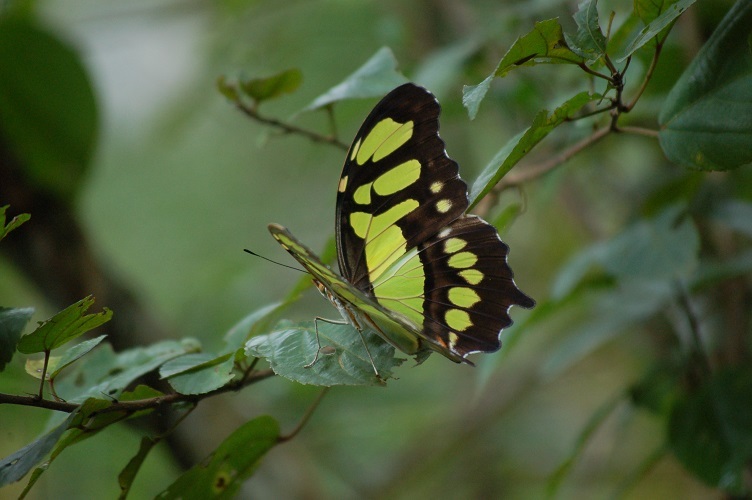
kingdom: Animalia
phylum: Arthropoda
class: Insecta
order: Lepidoptera
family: Nymphalidae
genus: Siproeta
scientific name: Siproeta stelenes
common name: Malachite
